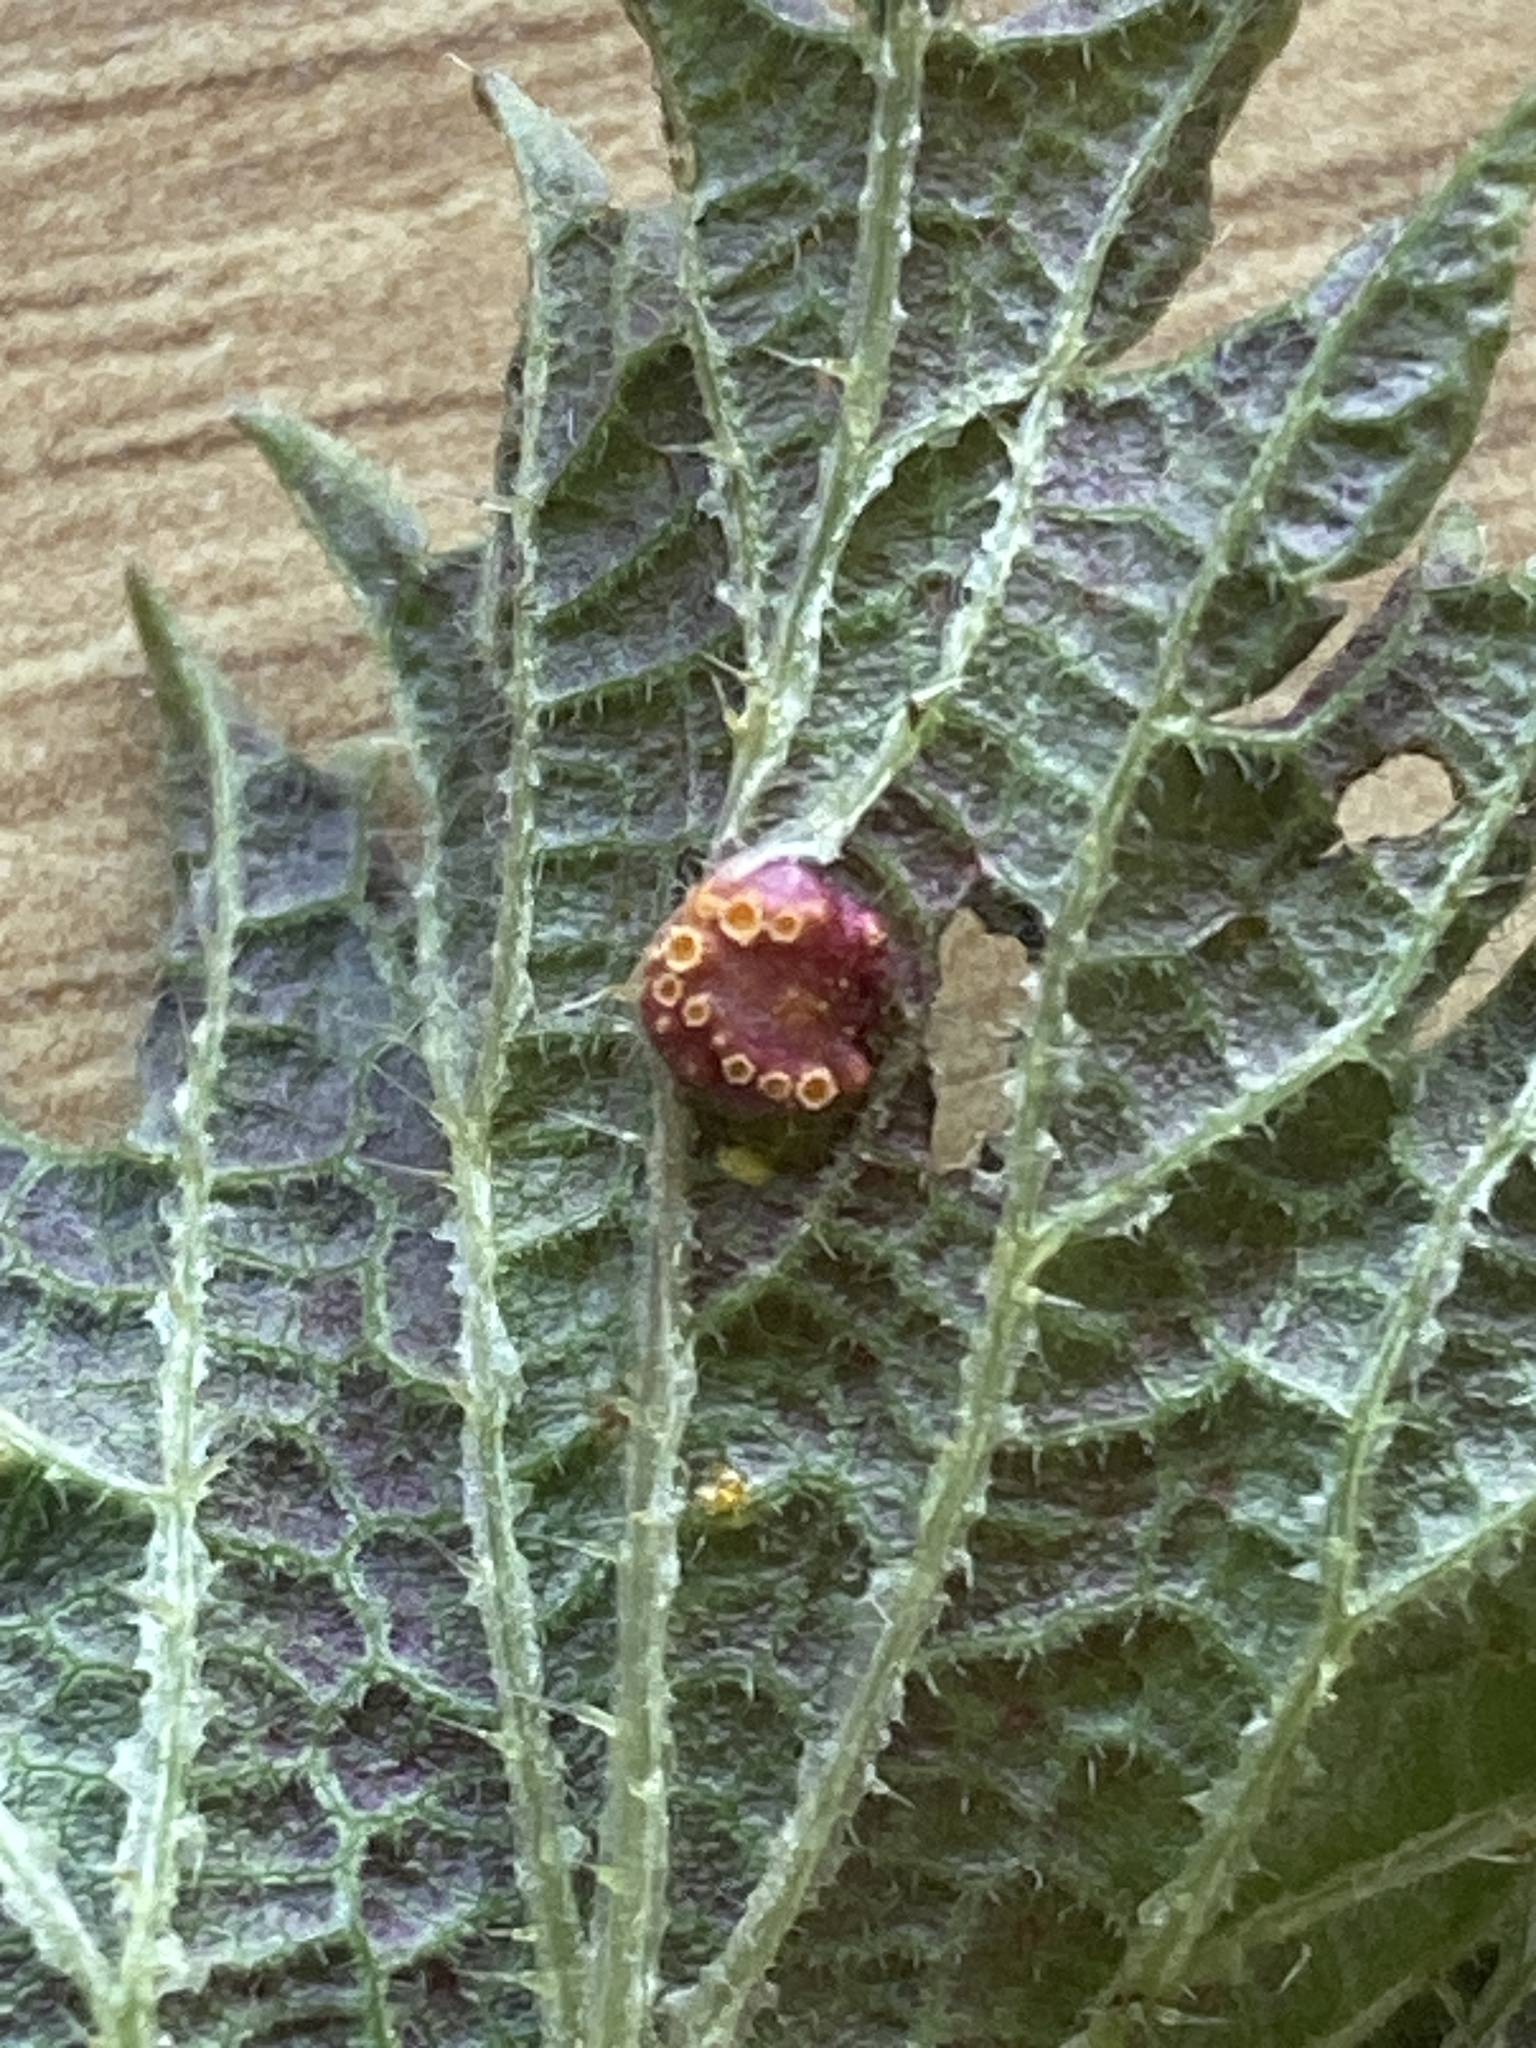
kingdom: Fungi
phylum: Basidiomycota
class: Pucciniomycetes
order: Pucciniales
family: Pucciniaceae
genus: Puccinia
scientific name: Puccinia urticata
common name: Nettle clustercup rust fungus
